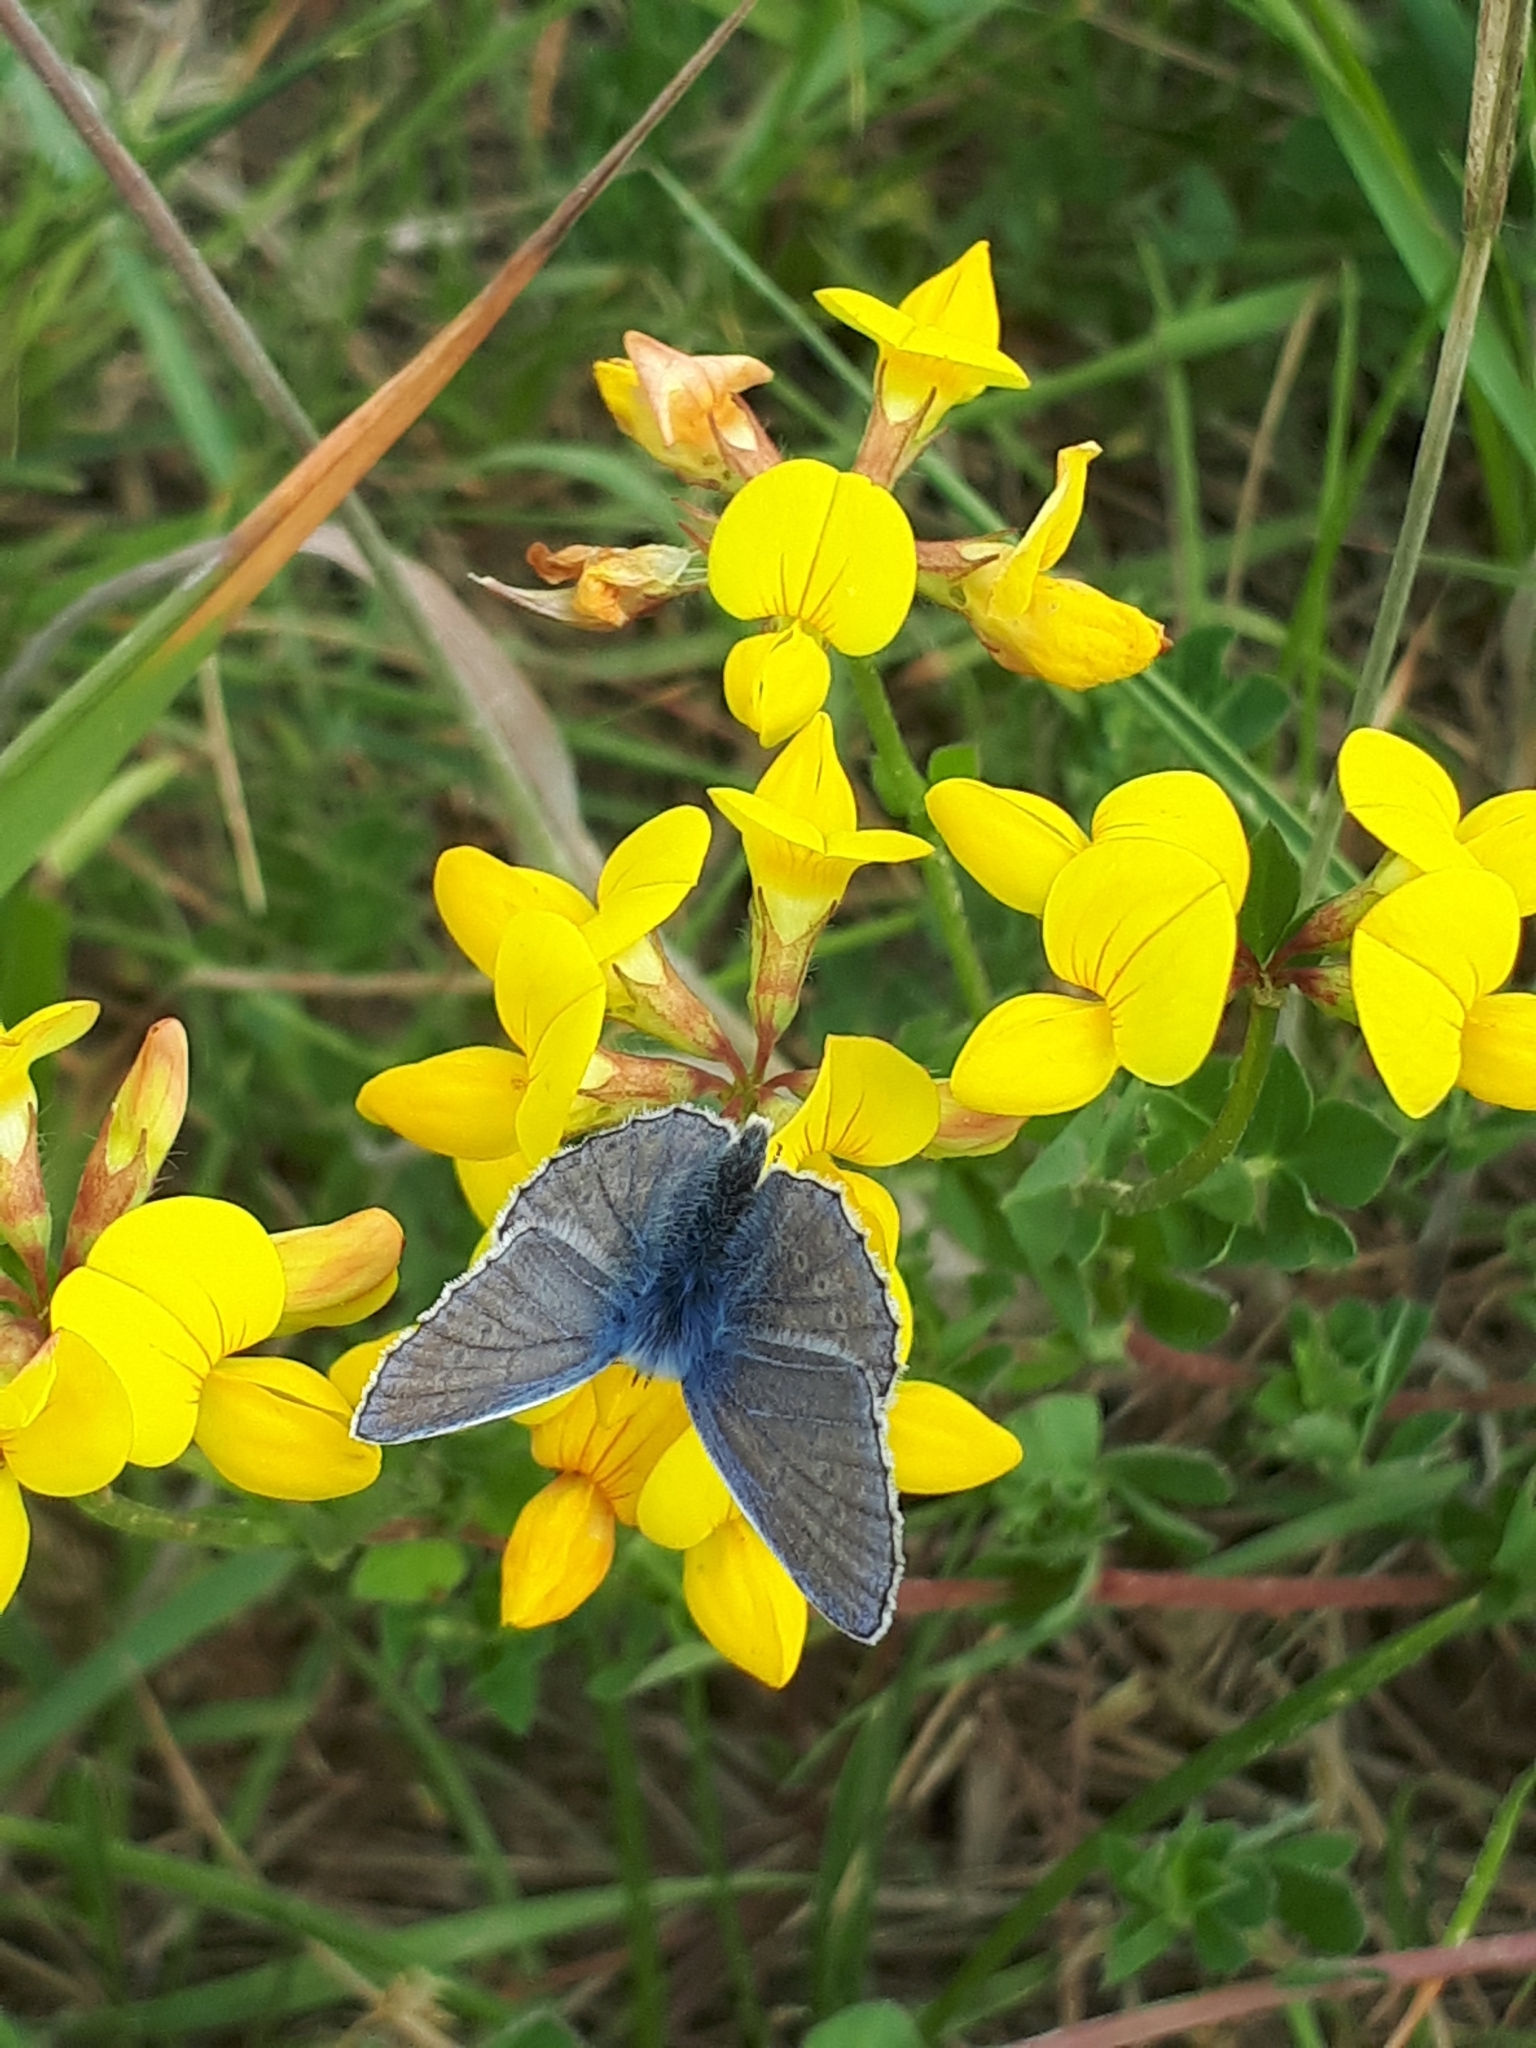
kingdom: Animalia
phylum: Arthropoda
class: Insecta
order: Lepidoptera
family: Lycaenidae
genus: Polyommatus
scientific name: Polyommatus icarus
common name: Common blue
